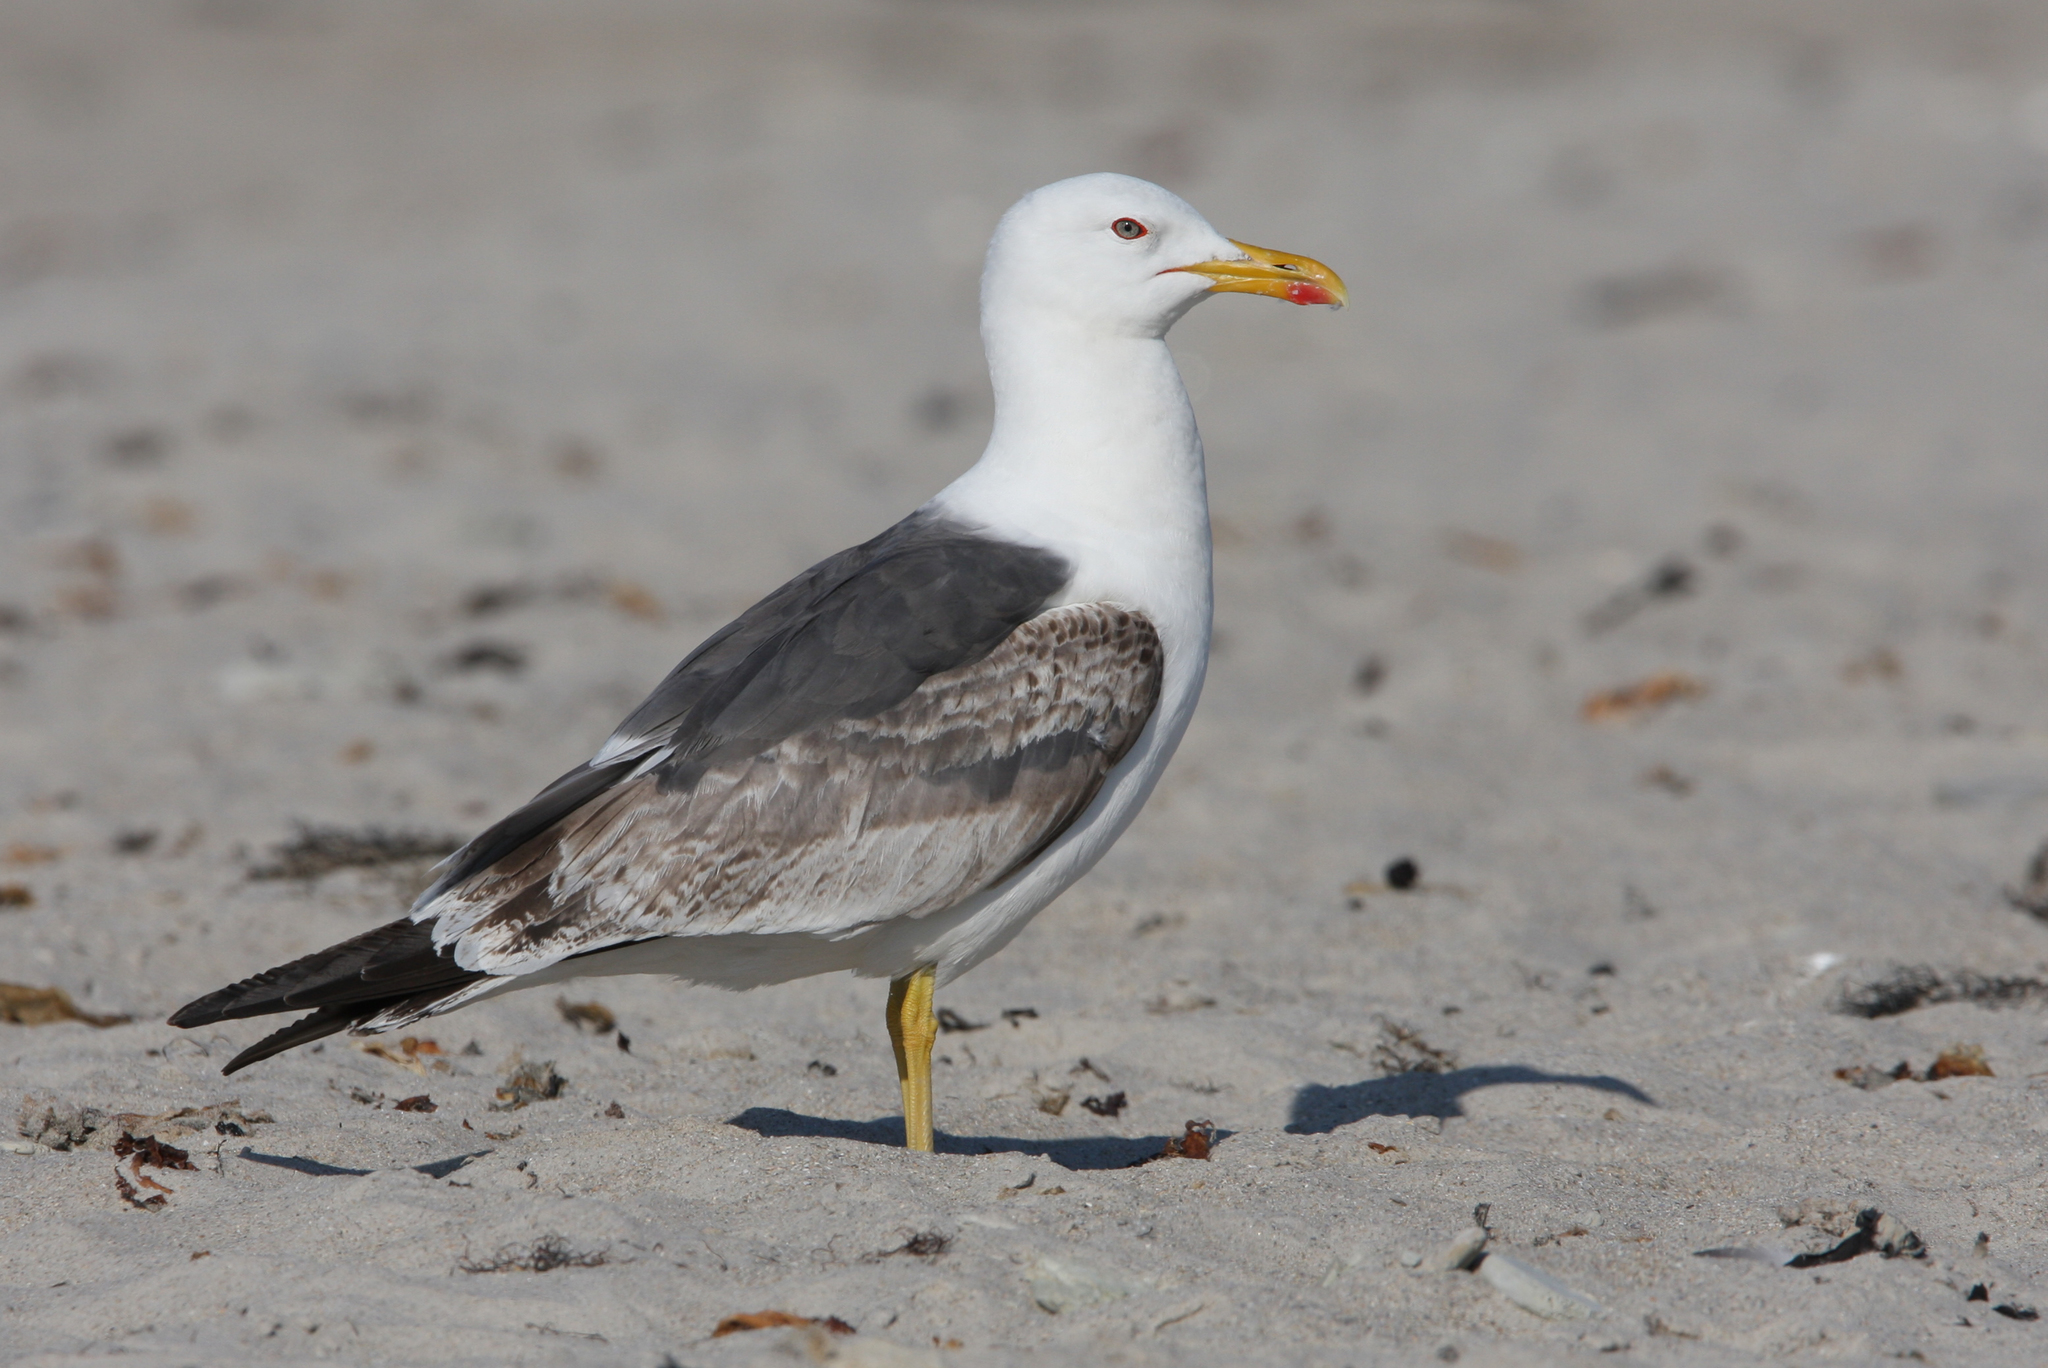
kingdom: Animalia
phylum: Chordata
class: Aves
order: Charadriiformes
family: Laridae
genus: Larus
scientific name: Larus fuscus
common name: Lesser black-backed gull
